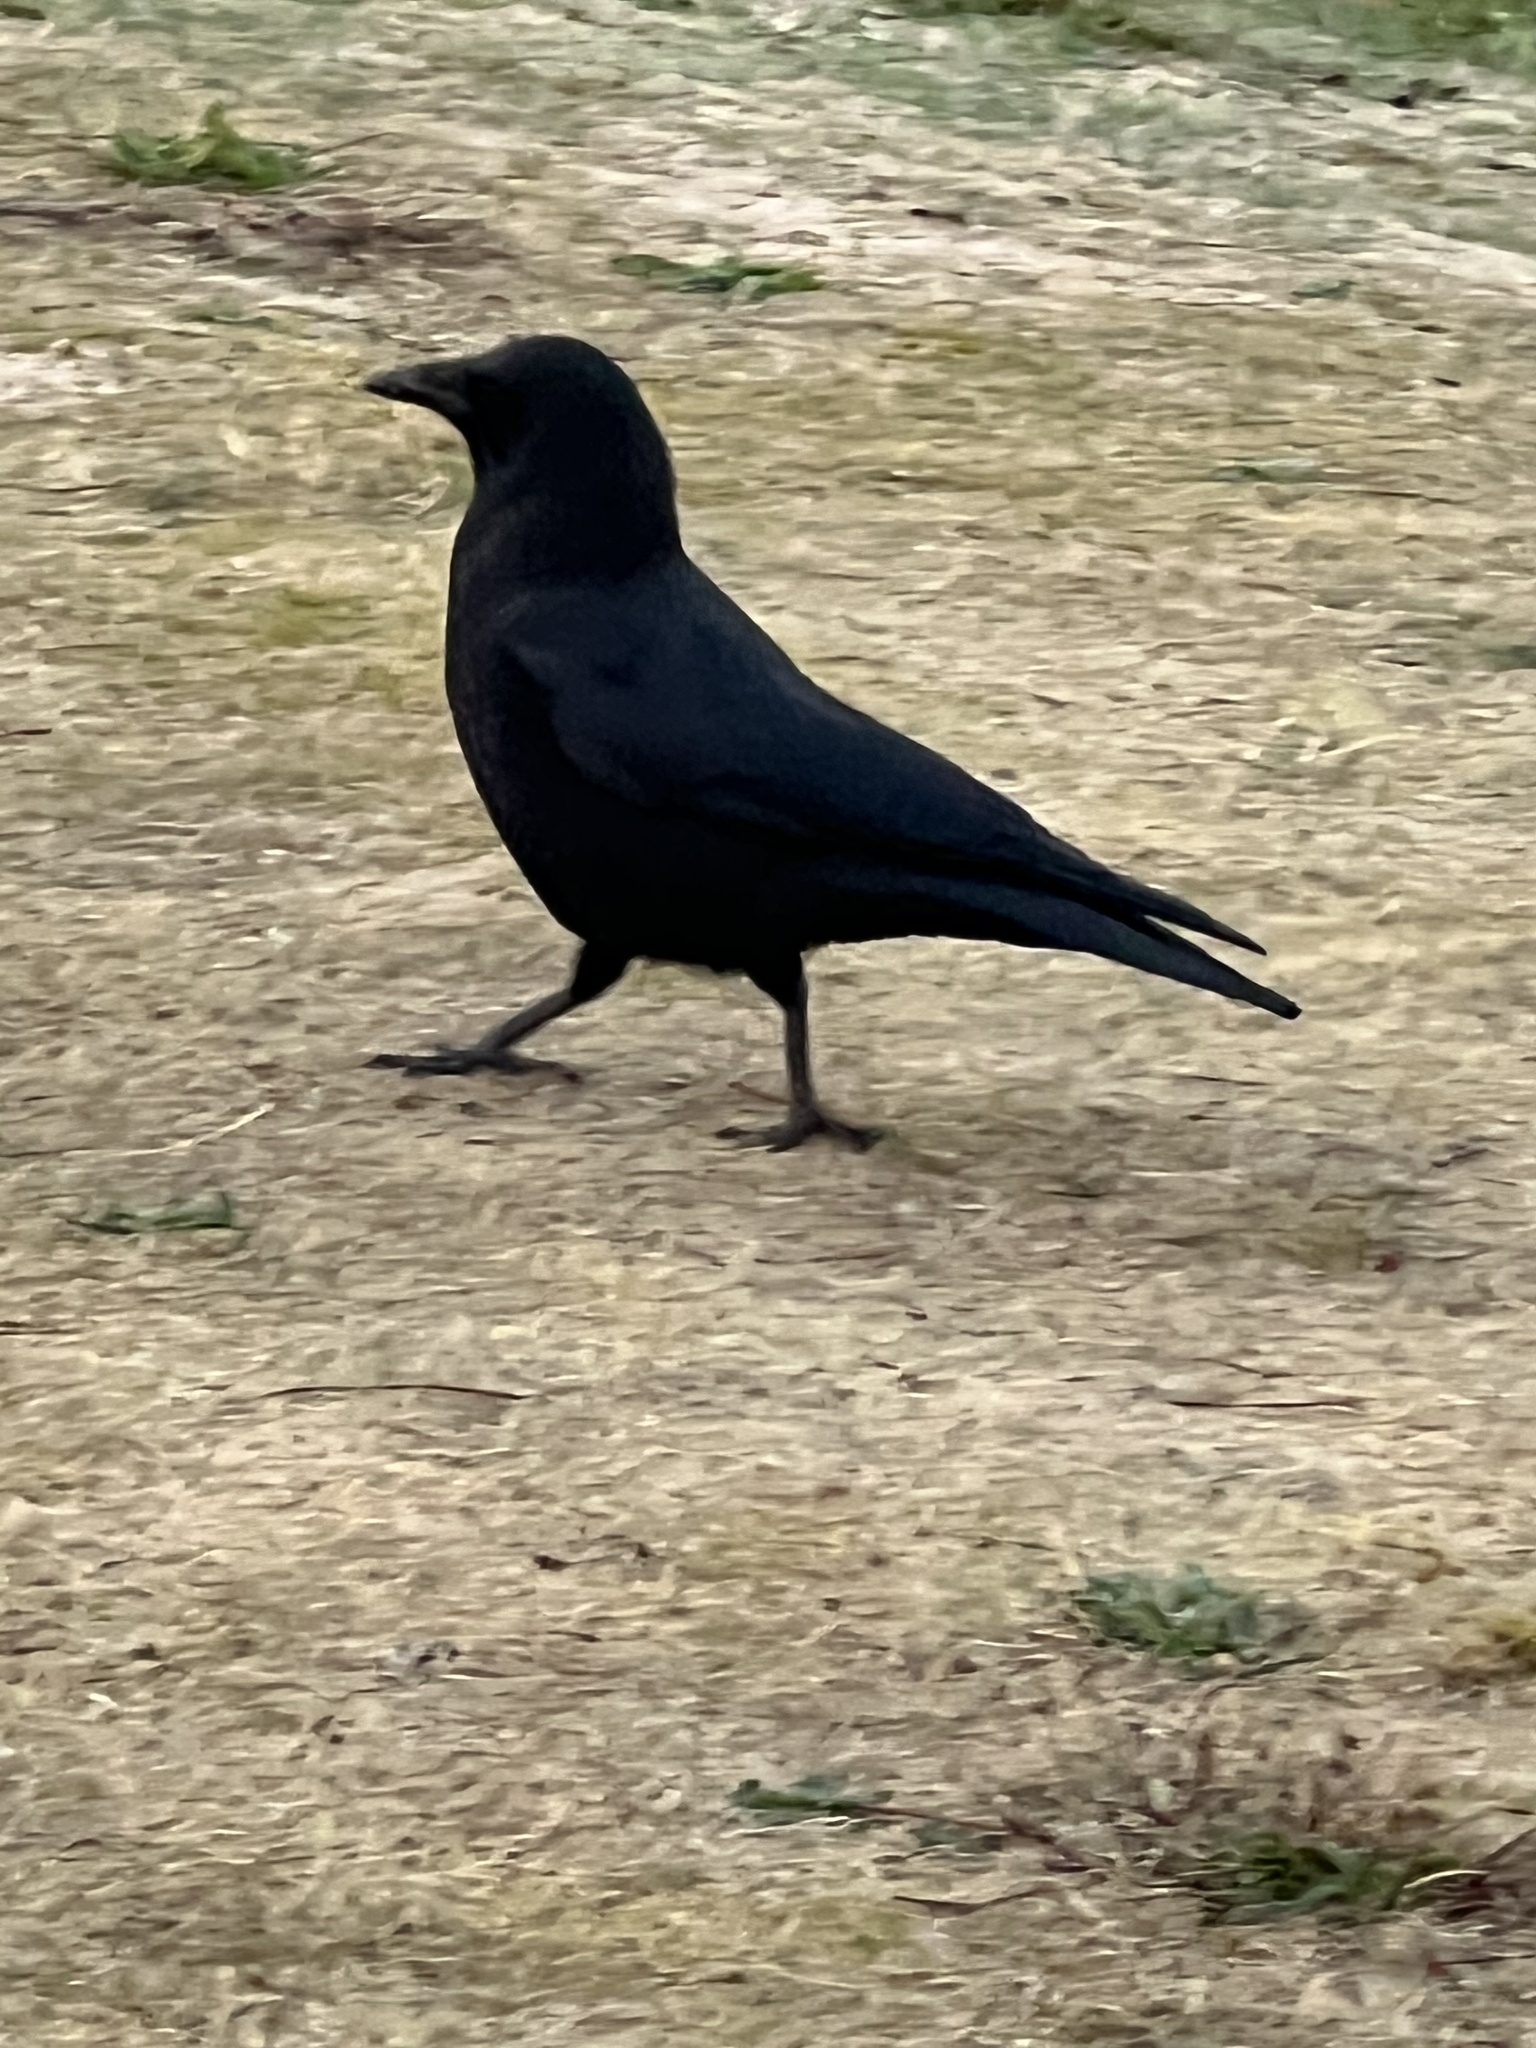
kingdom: Animalia
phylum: Chordata
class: Aves
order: Passeriformes
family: Corvidae
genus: Corvus
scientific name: Corvus brachyrhynchos
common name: American crow
